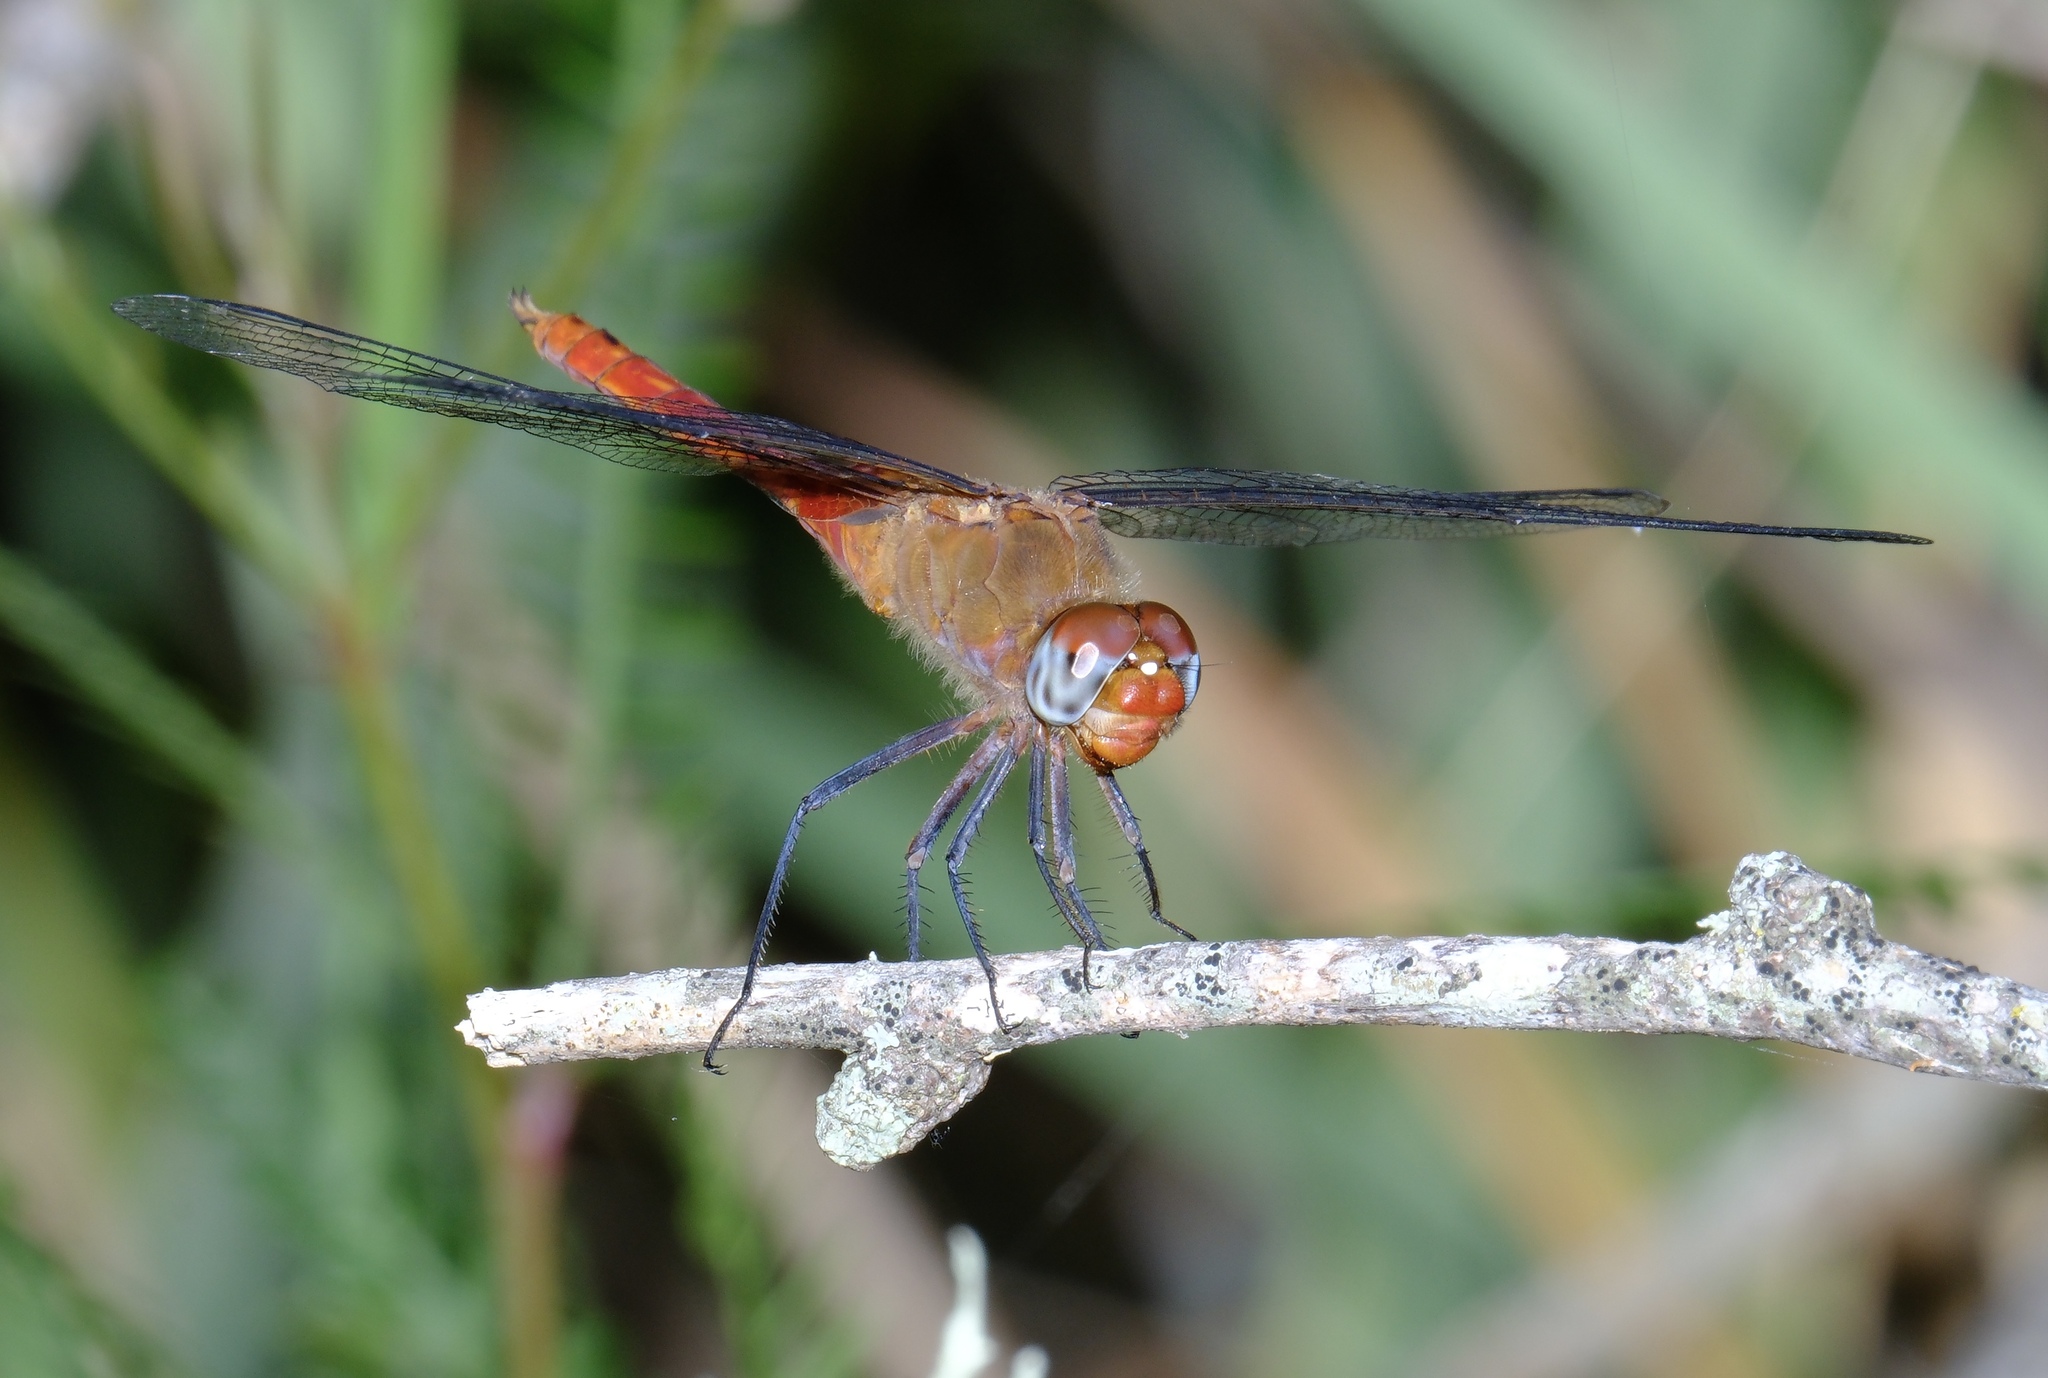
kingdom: Animalia
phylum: Arthropoda
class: Insecta
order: Odonata
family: Libellulidae
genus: Brachymesia
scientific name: Brachymesia furcata
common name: Red-taled pennant
